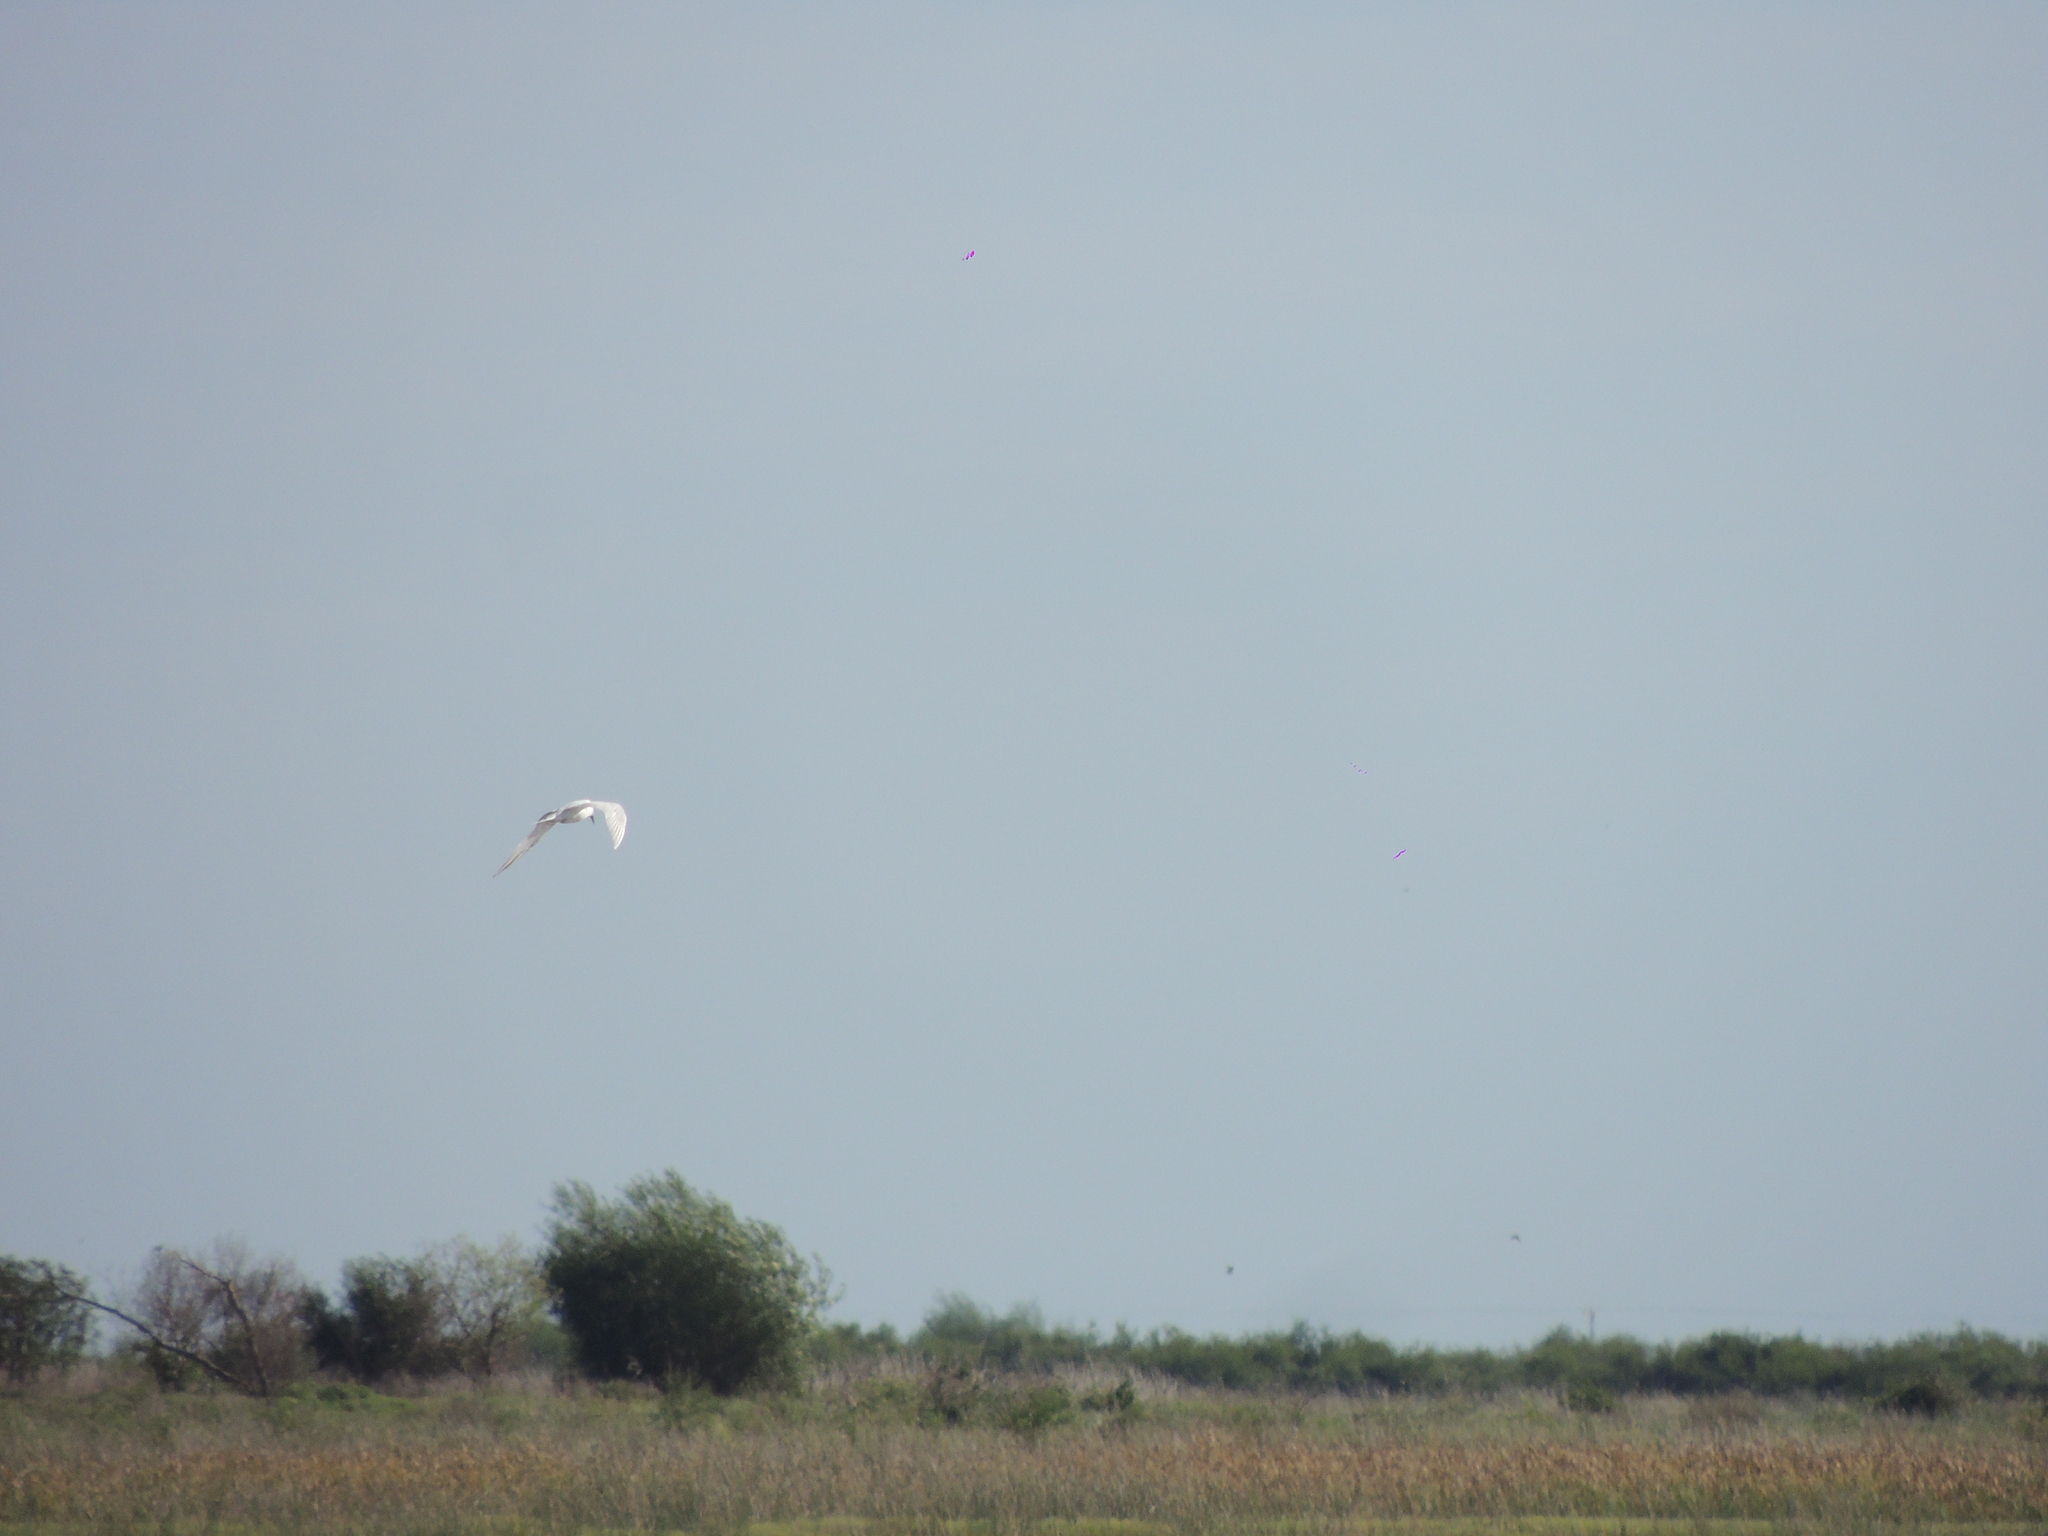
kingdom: Animalia
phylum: Chordata
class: Aves
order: Charadriiformes
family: Laridae
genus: Gelochelidon
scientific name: Gelochelidon nilotica
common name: Gull-billed tern
